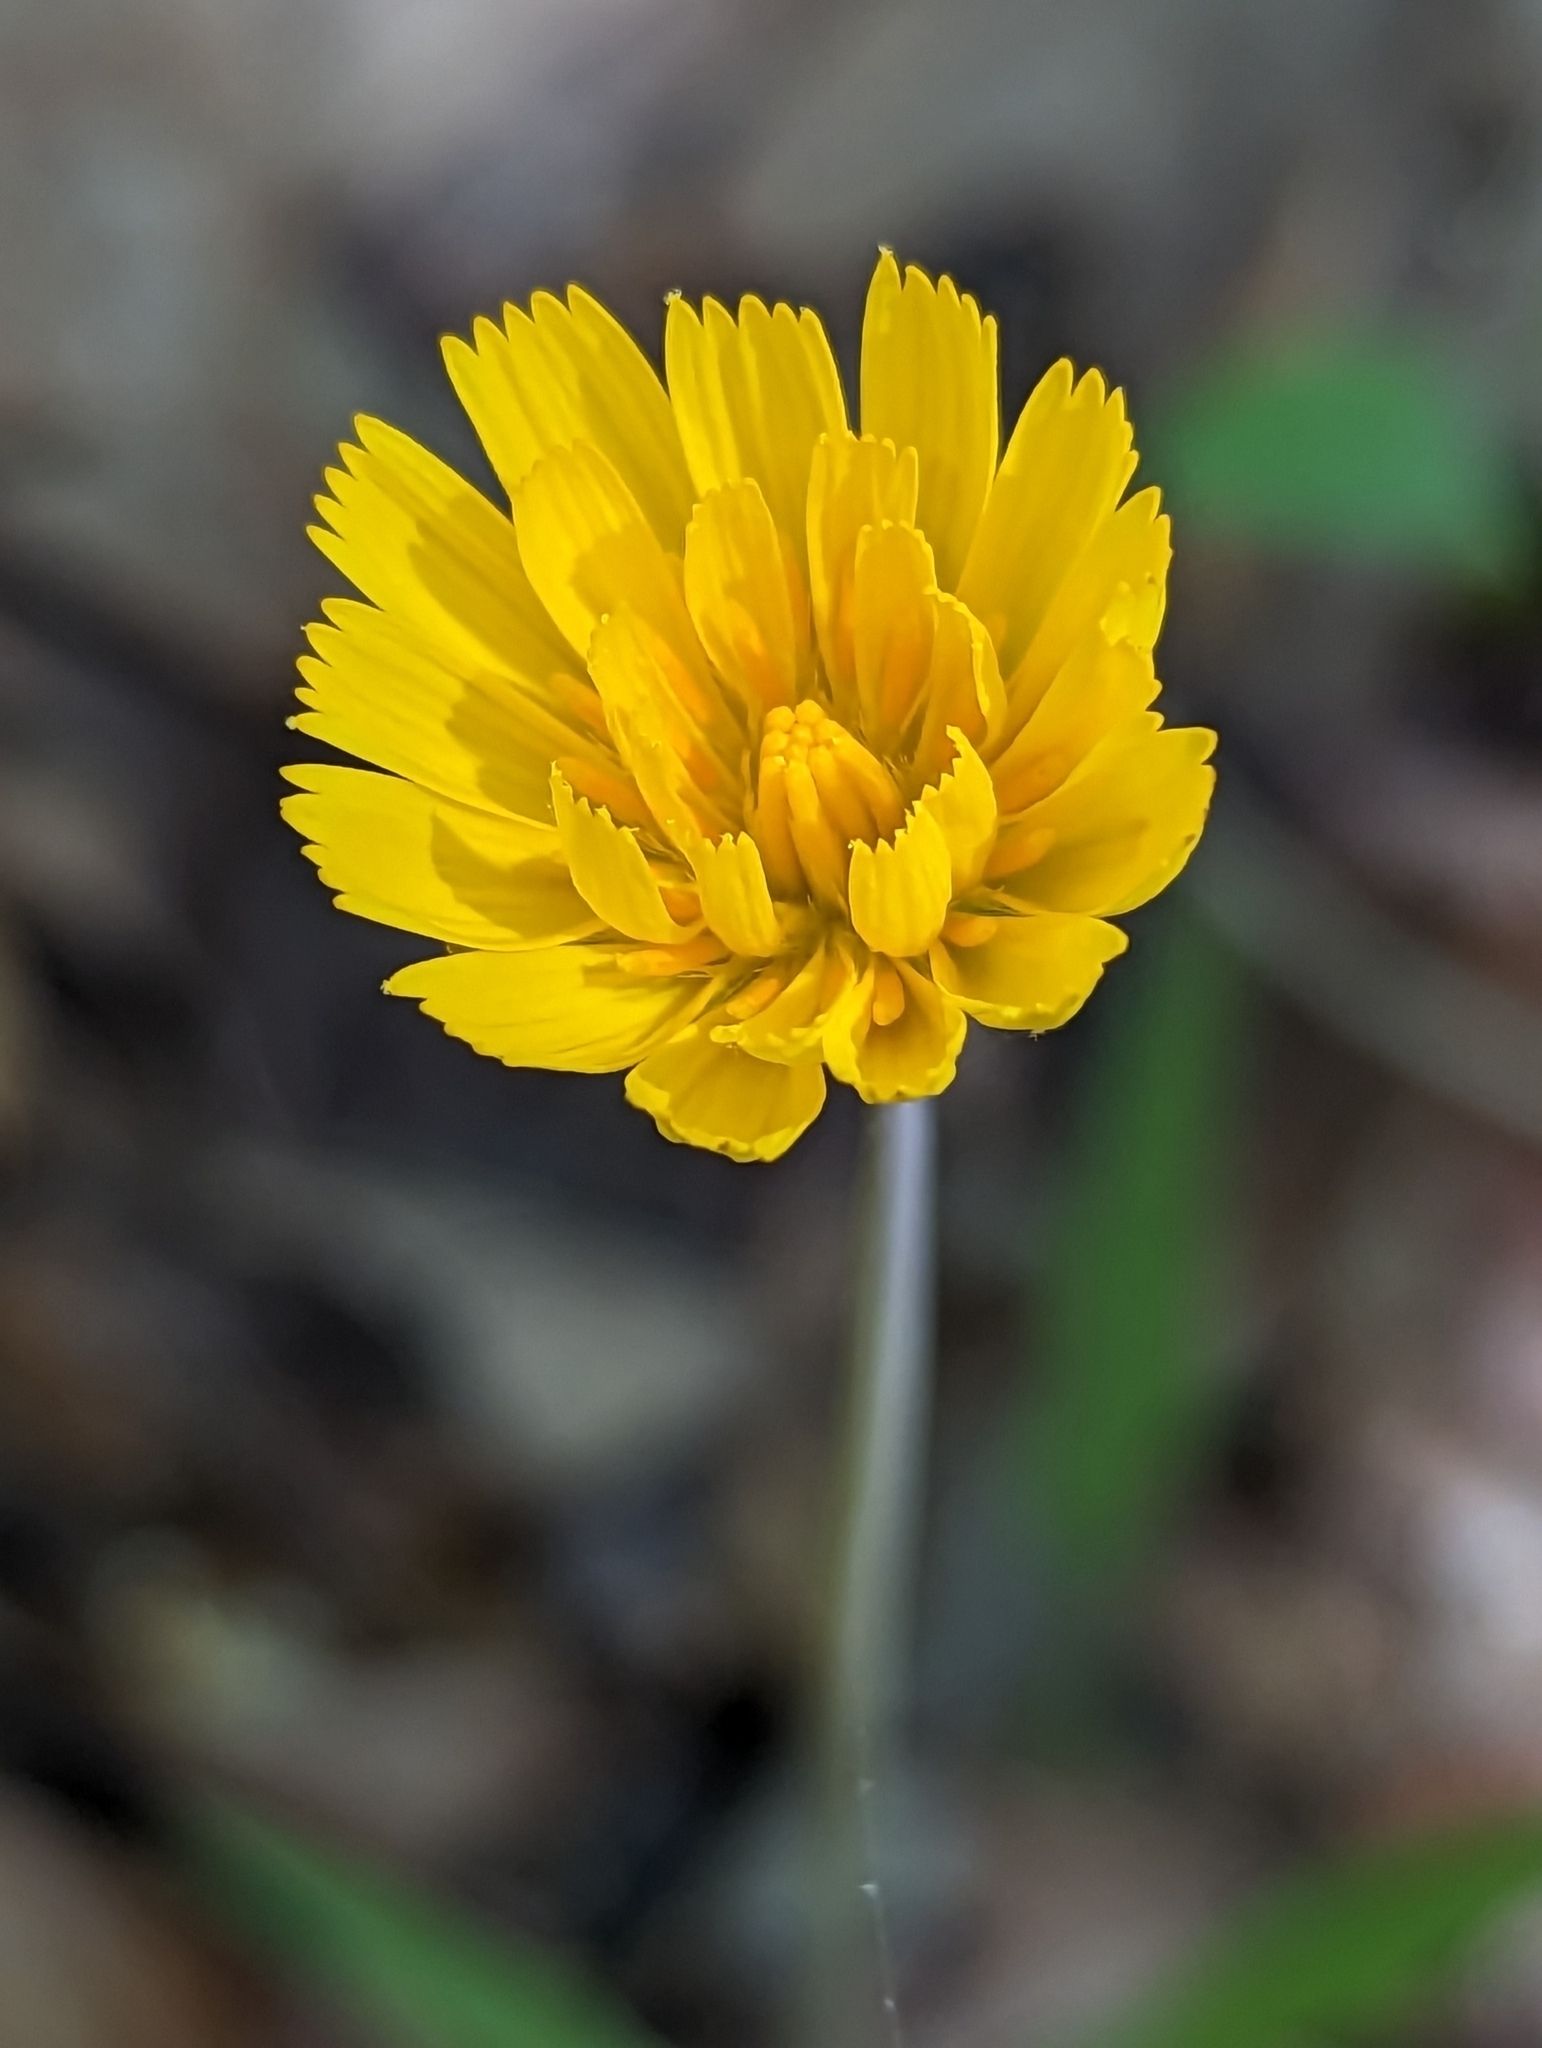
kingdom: Plantae
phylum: Tracheophyta
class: Magnoliopsida
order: Asterales
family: Asteraceae
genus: Krigia
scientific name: Krigia dandelion
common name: Colonial dwarf-dandelion
